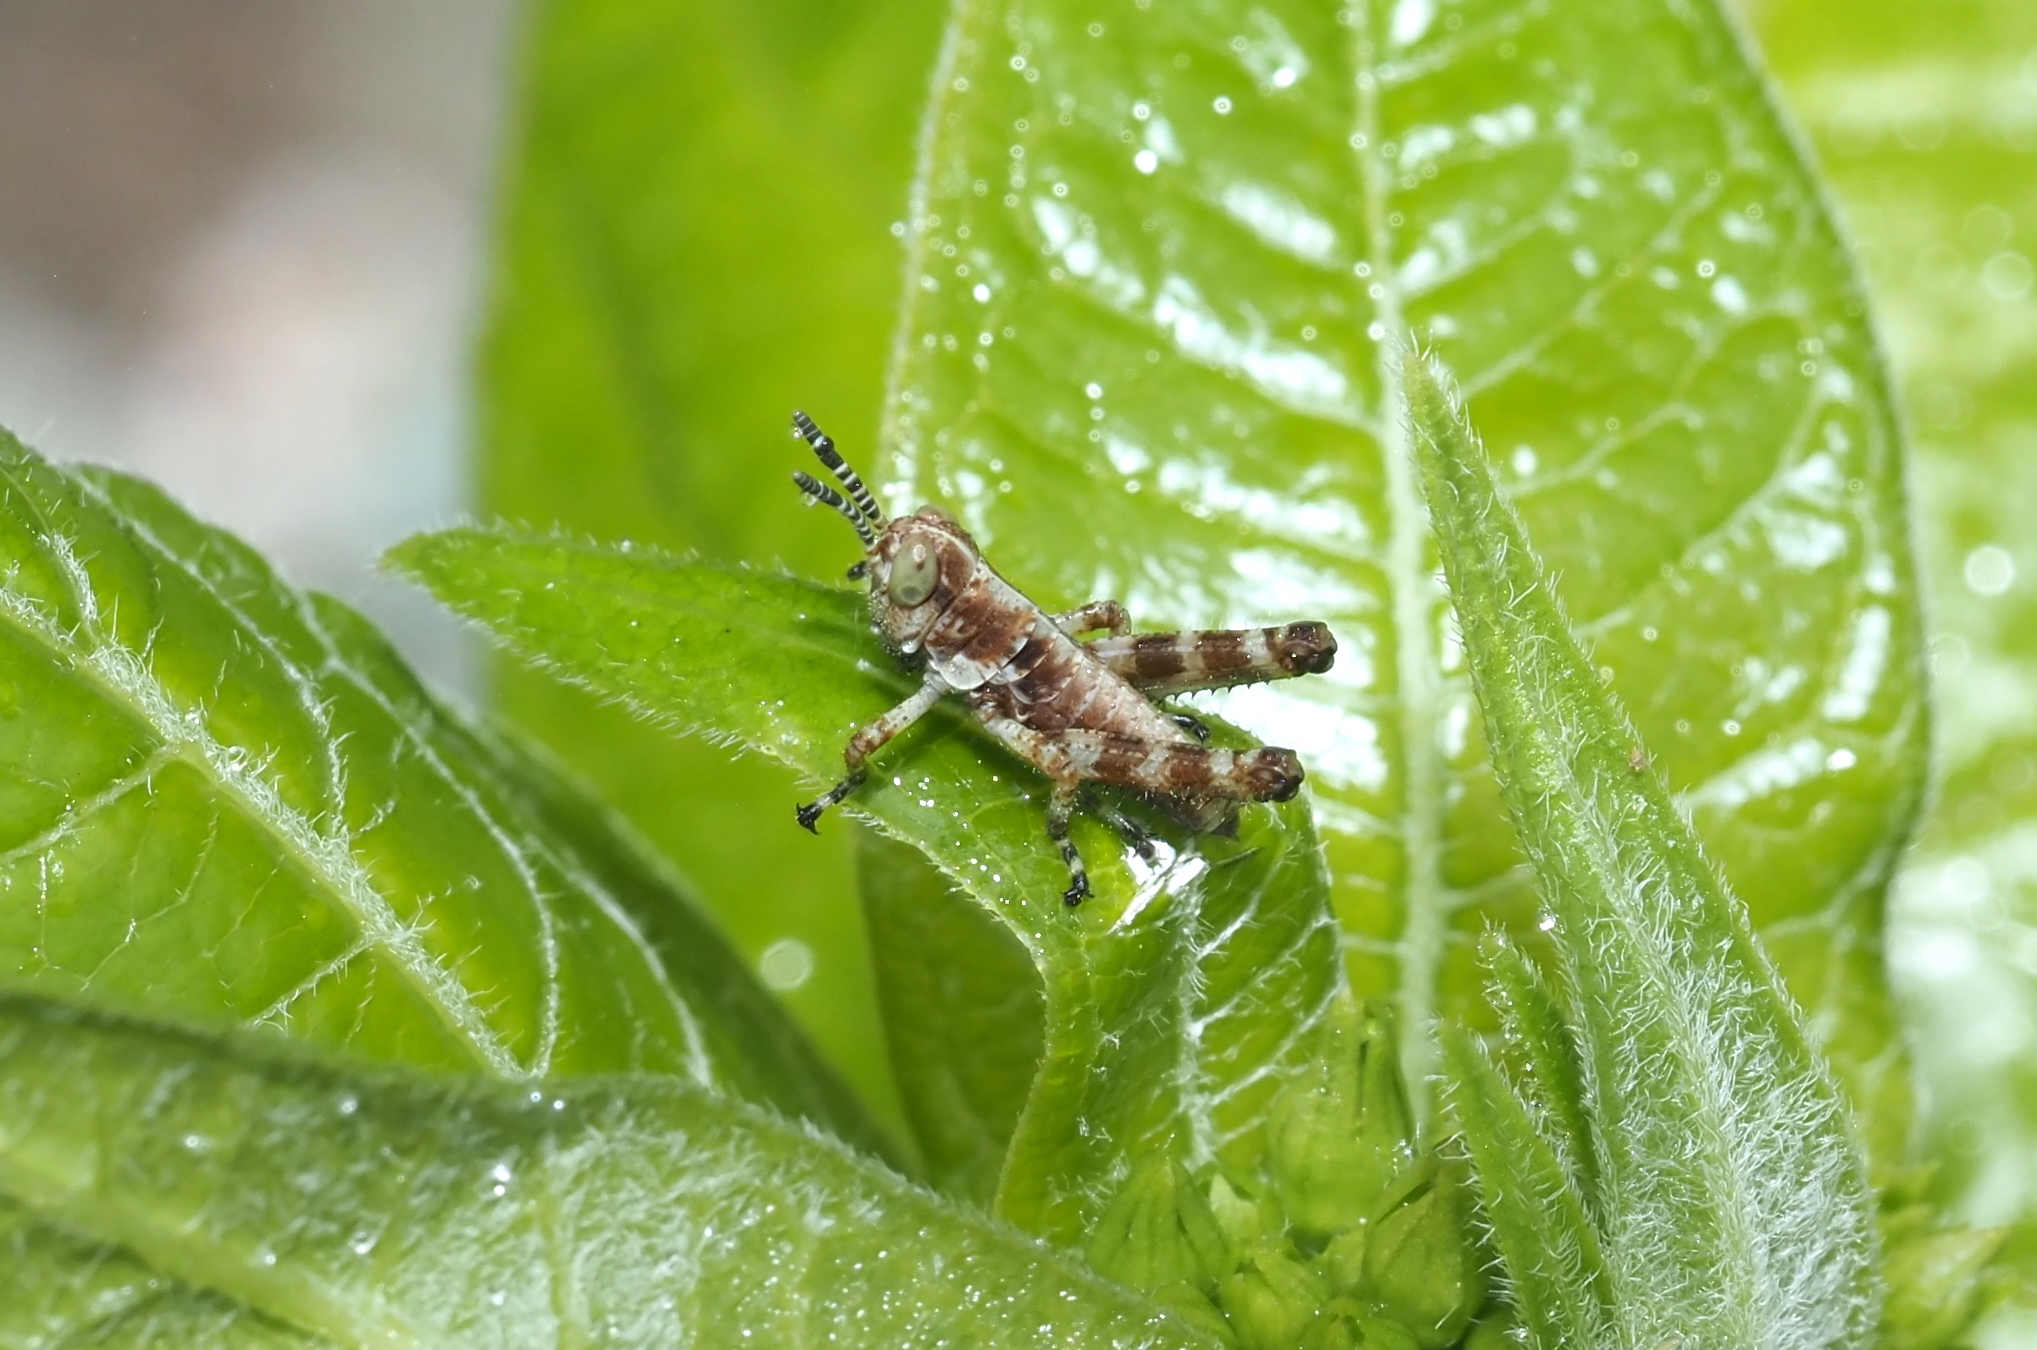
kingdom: Animalia
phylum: Arthropoda
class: Insecta
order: Orthoptera
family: Acrididae
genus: Booneacris
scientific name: Booneacris glacialis
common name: Wingless mountain grasshopper
